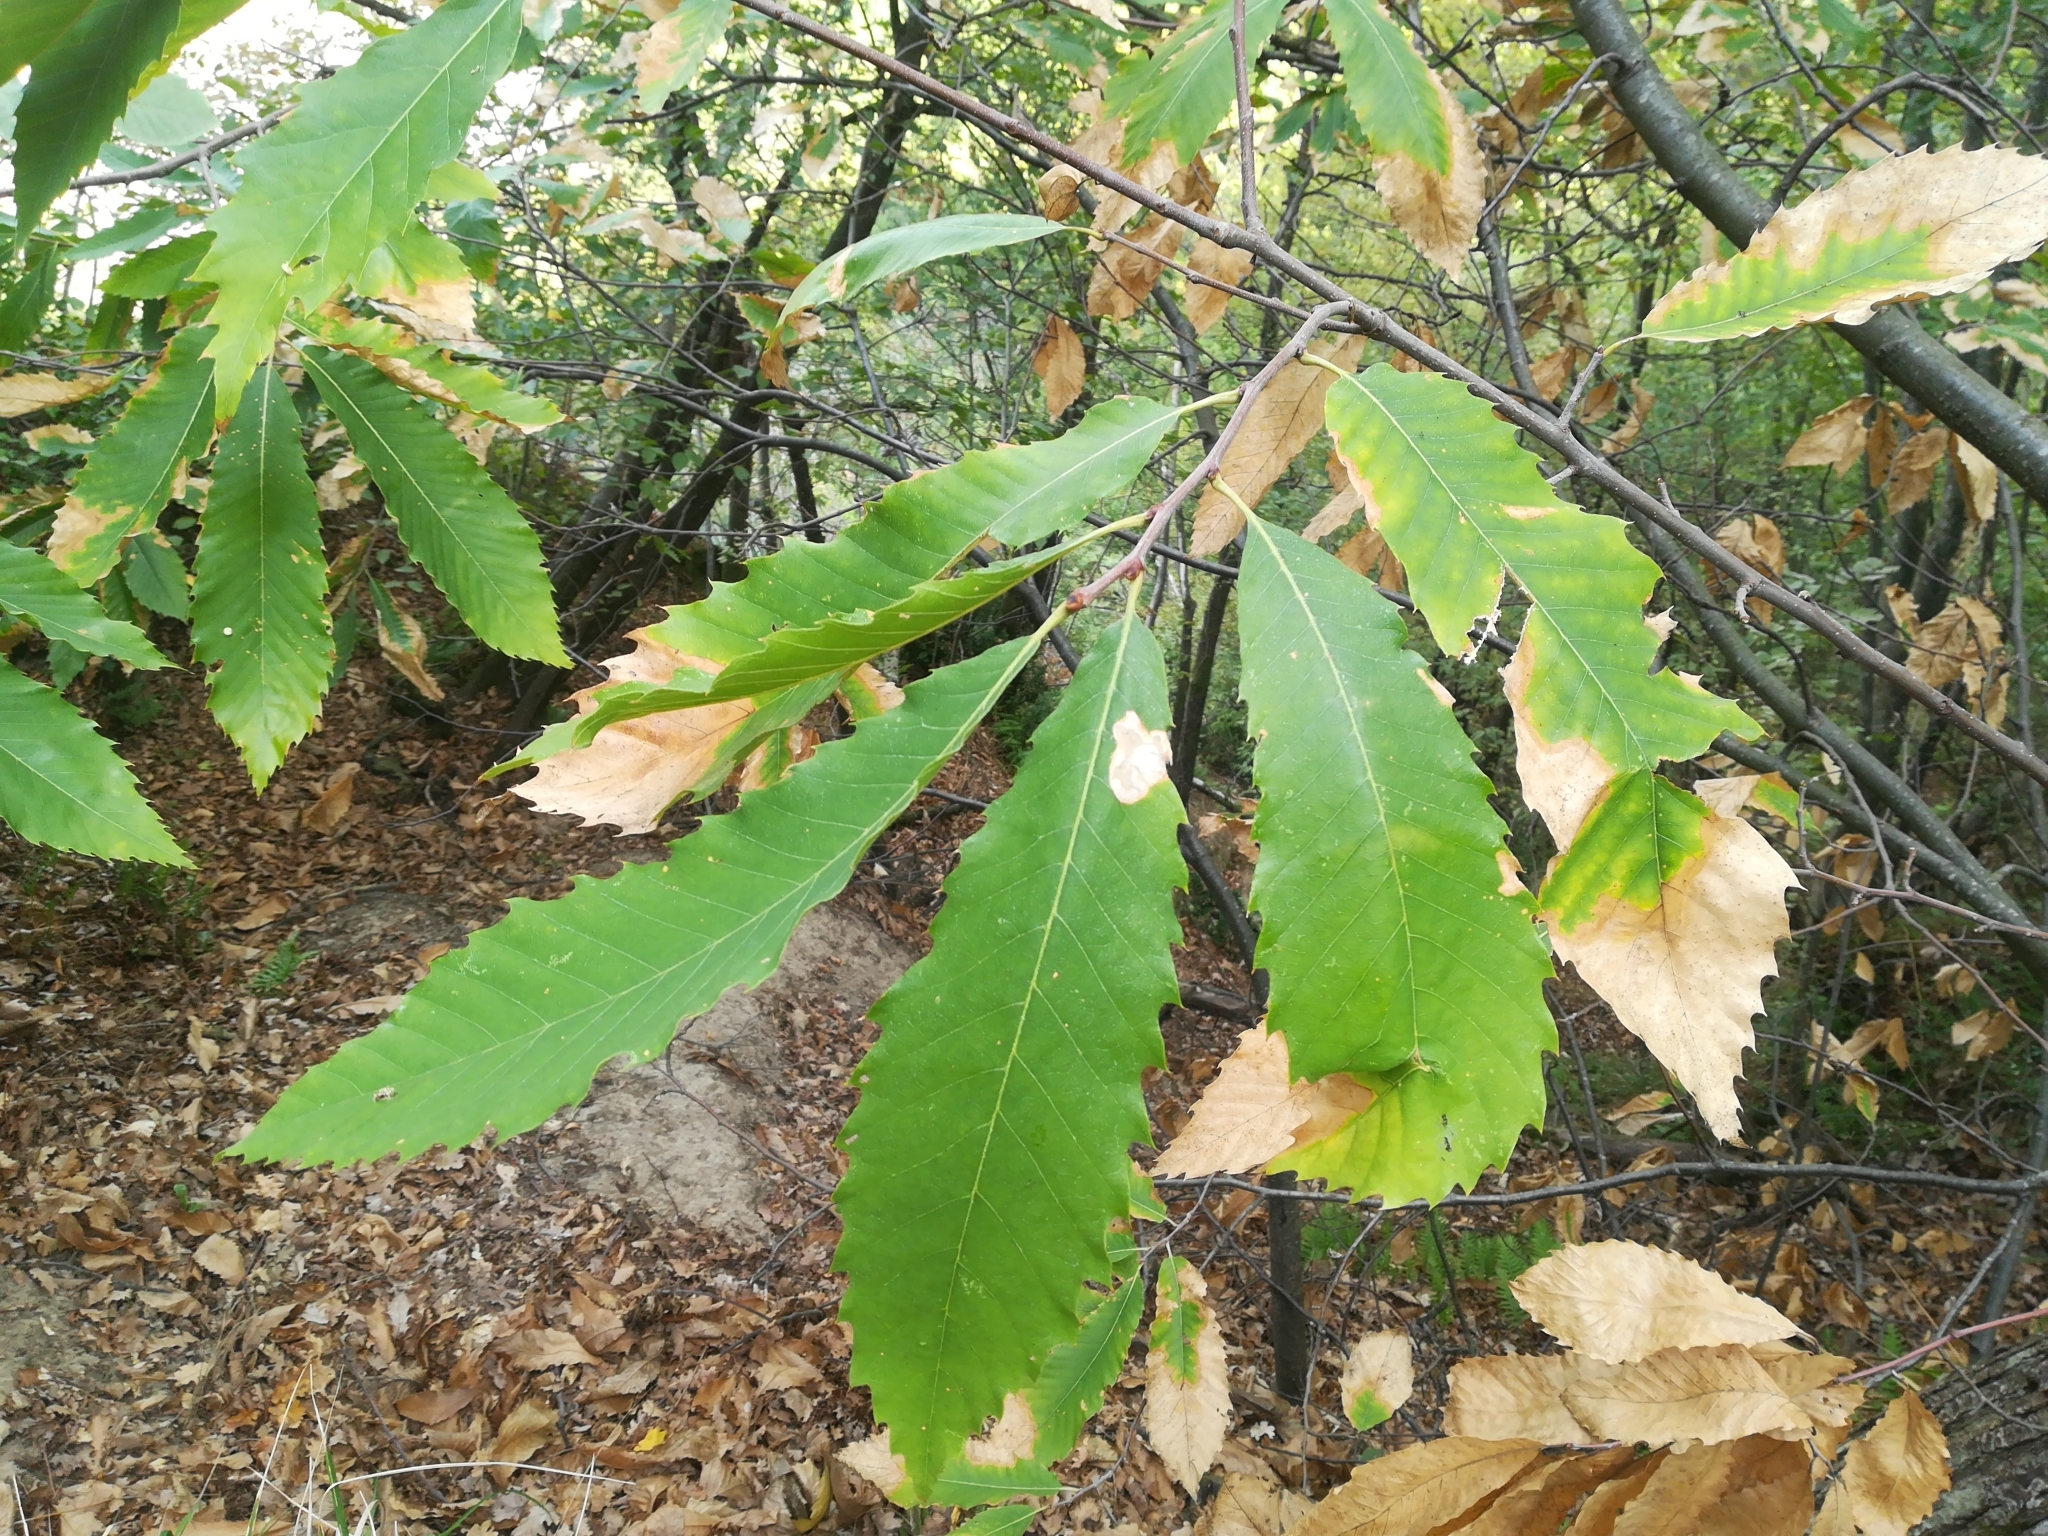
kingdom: Plantae
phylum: Tracheophyta
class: Magnoliopsida
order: Fagales
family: Fagaceae
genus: Castanea
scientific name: Castanea sativa
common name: Sweet chestnut
